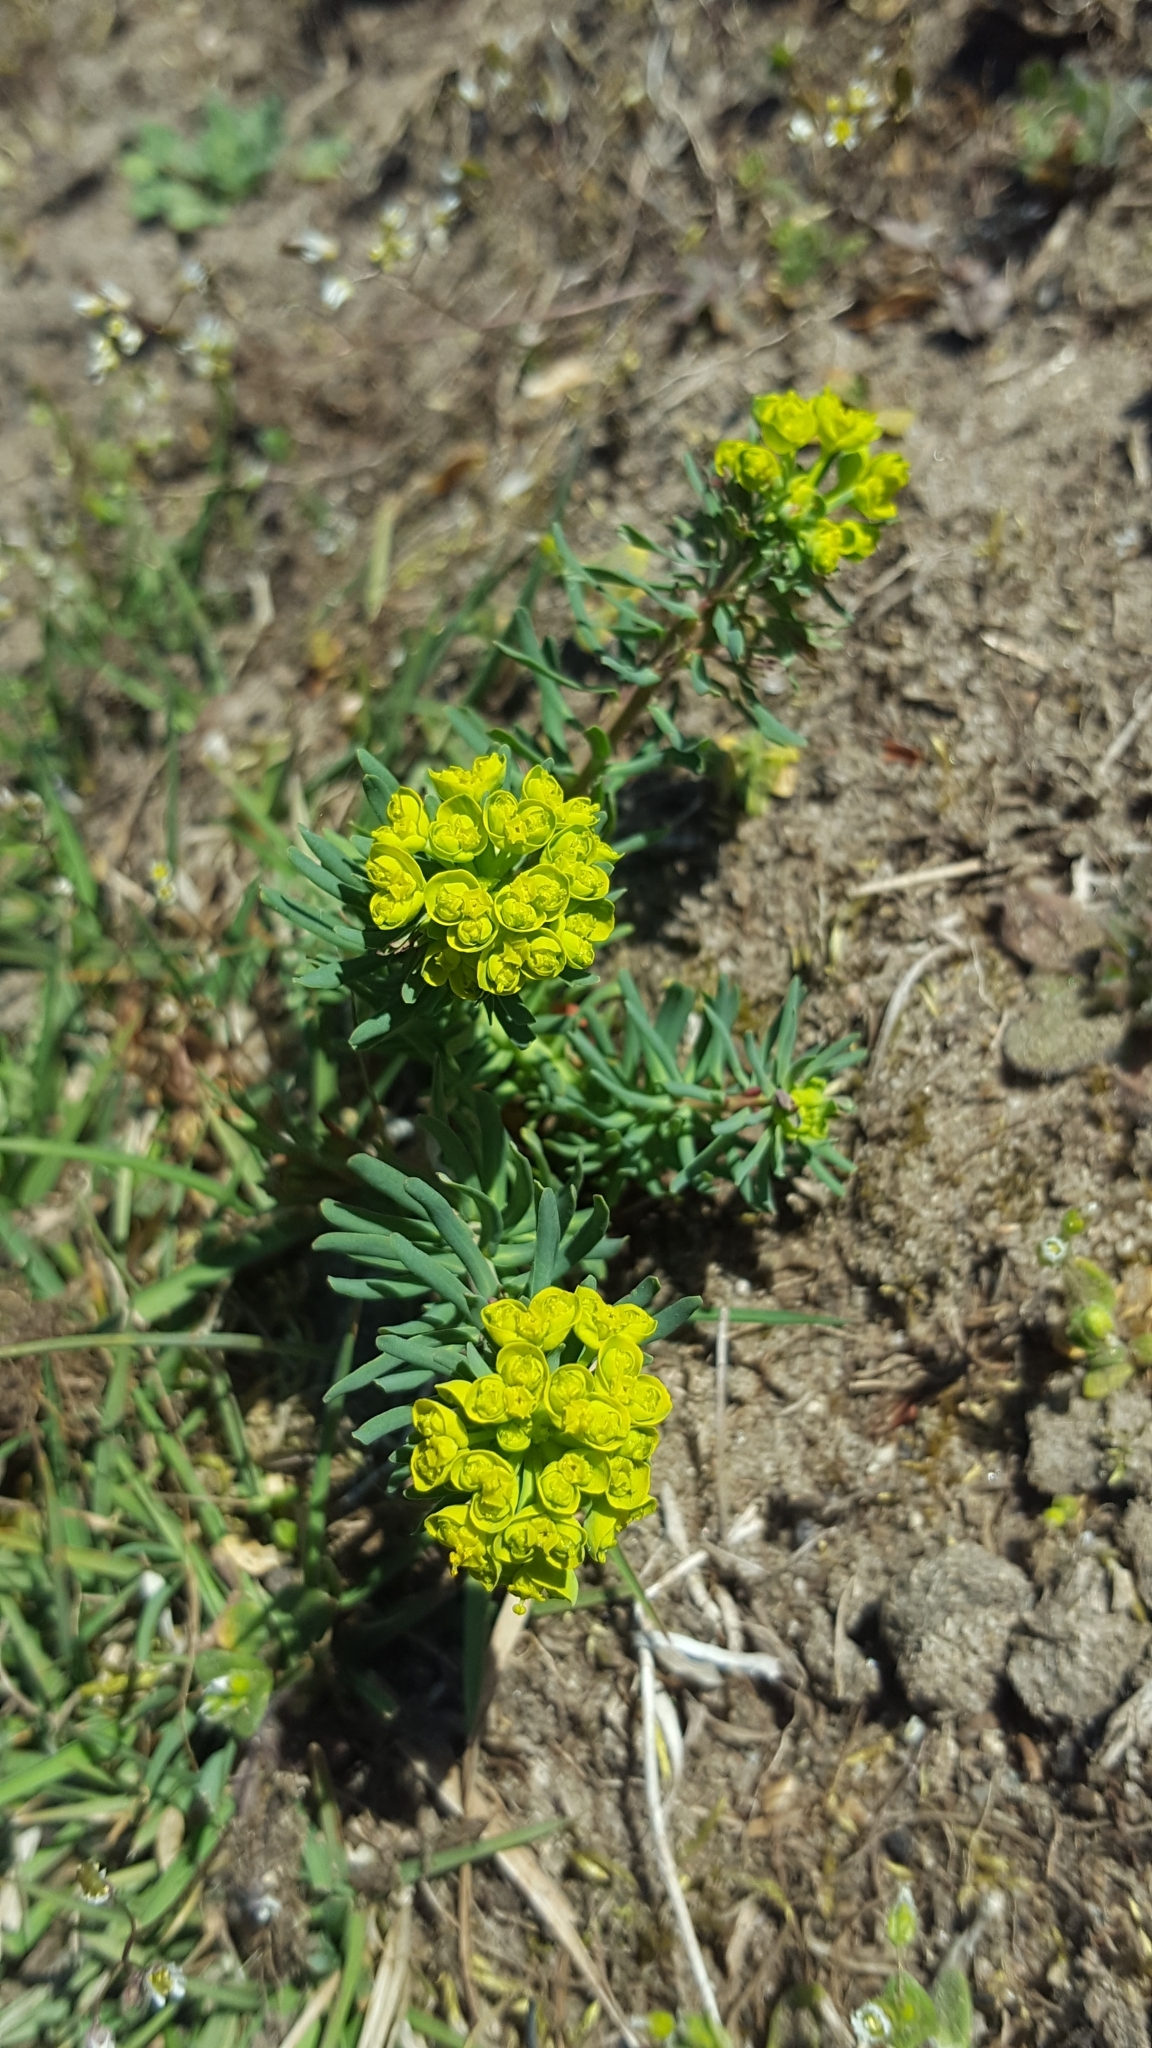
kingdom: Plantae
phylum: Tracheophyta
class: Magnoliopsida
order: Malpighiales
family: Euphorbiaceae
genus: Euphorbia
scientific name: Euphorbia cyparissias
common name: Cypress spurge
